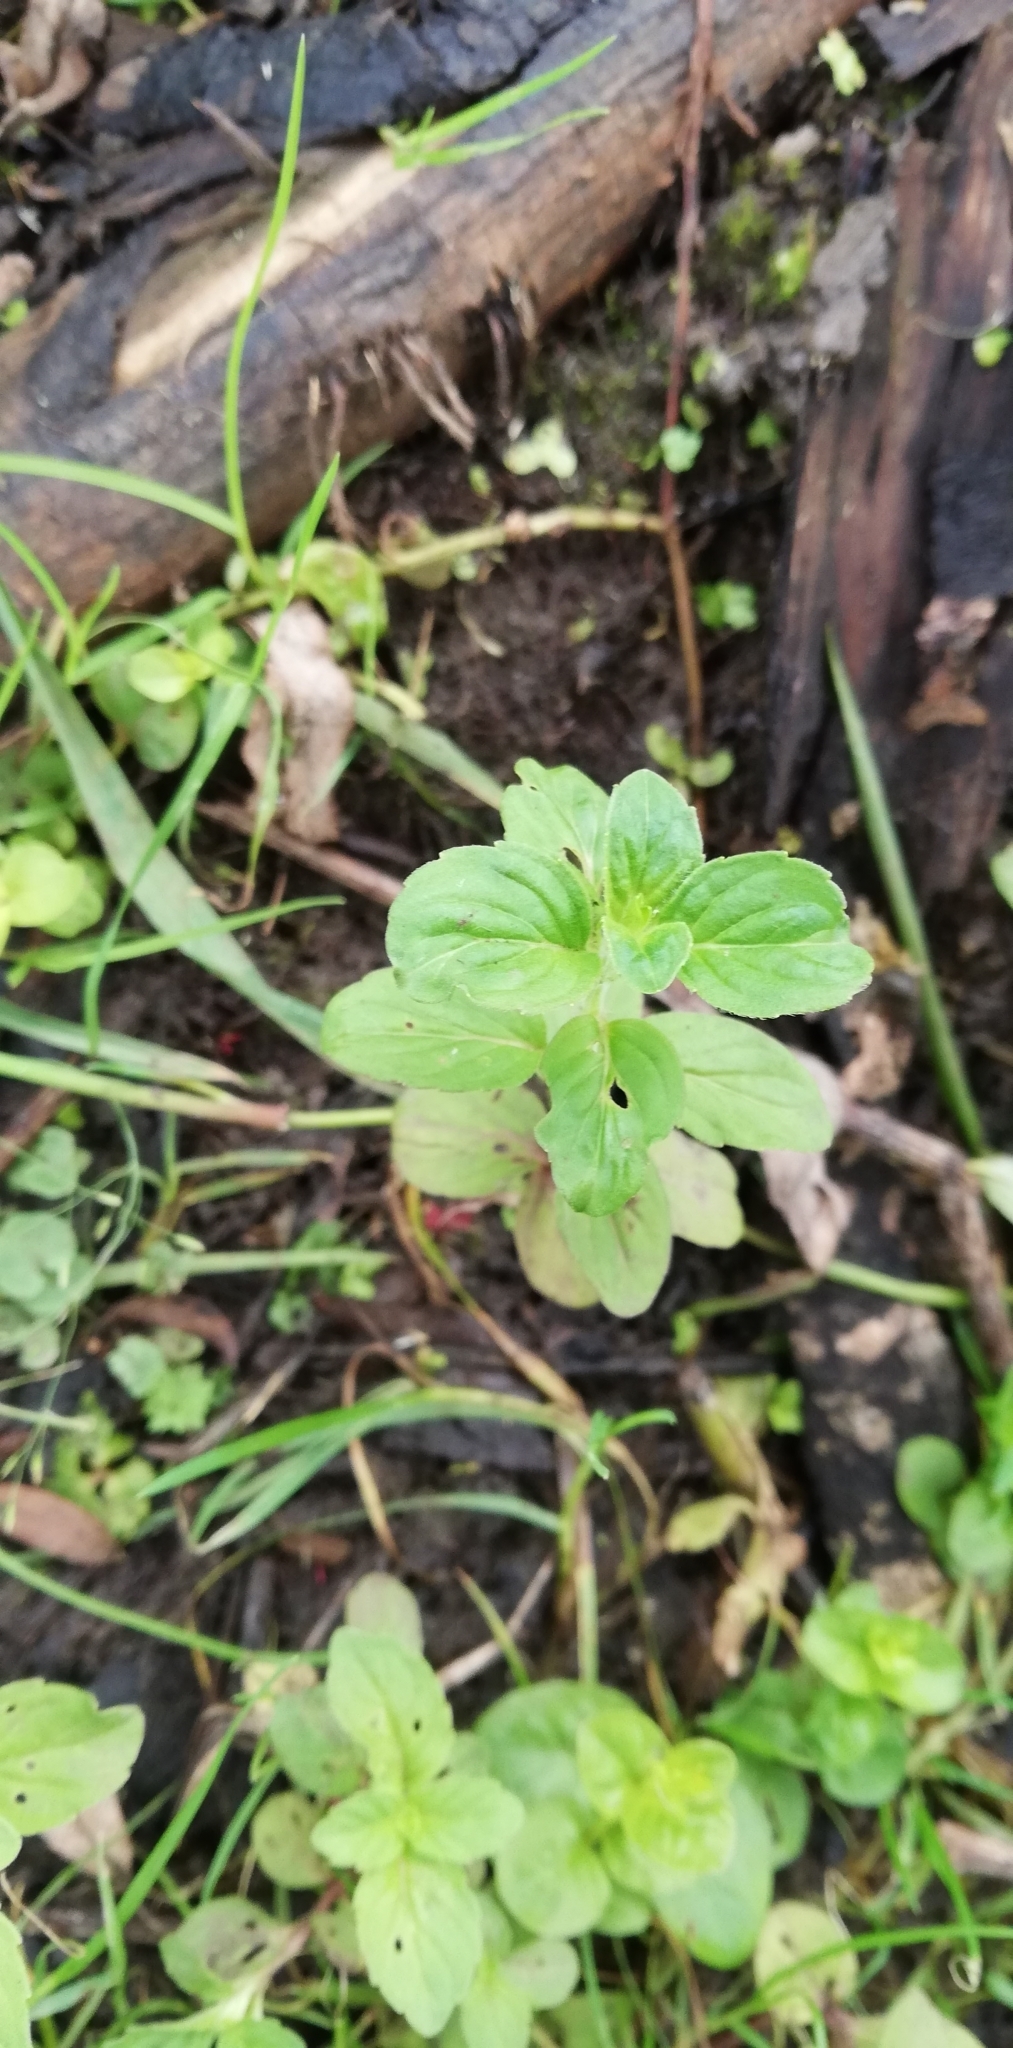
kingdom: Plantae
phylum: Tracheophyta
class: Magnoliopsida
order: Lamiales
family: Lamiaceae
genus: Mentha
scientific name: Mentha arvensis
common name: Corn mint
